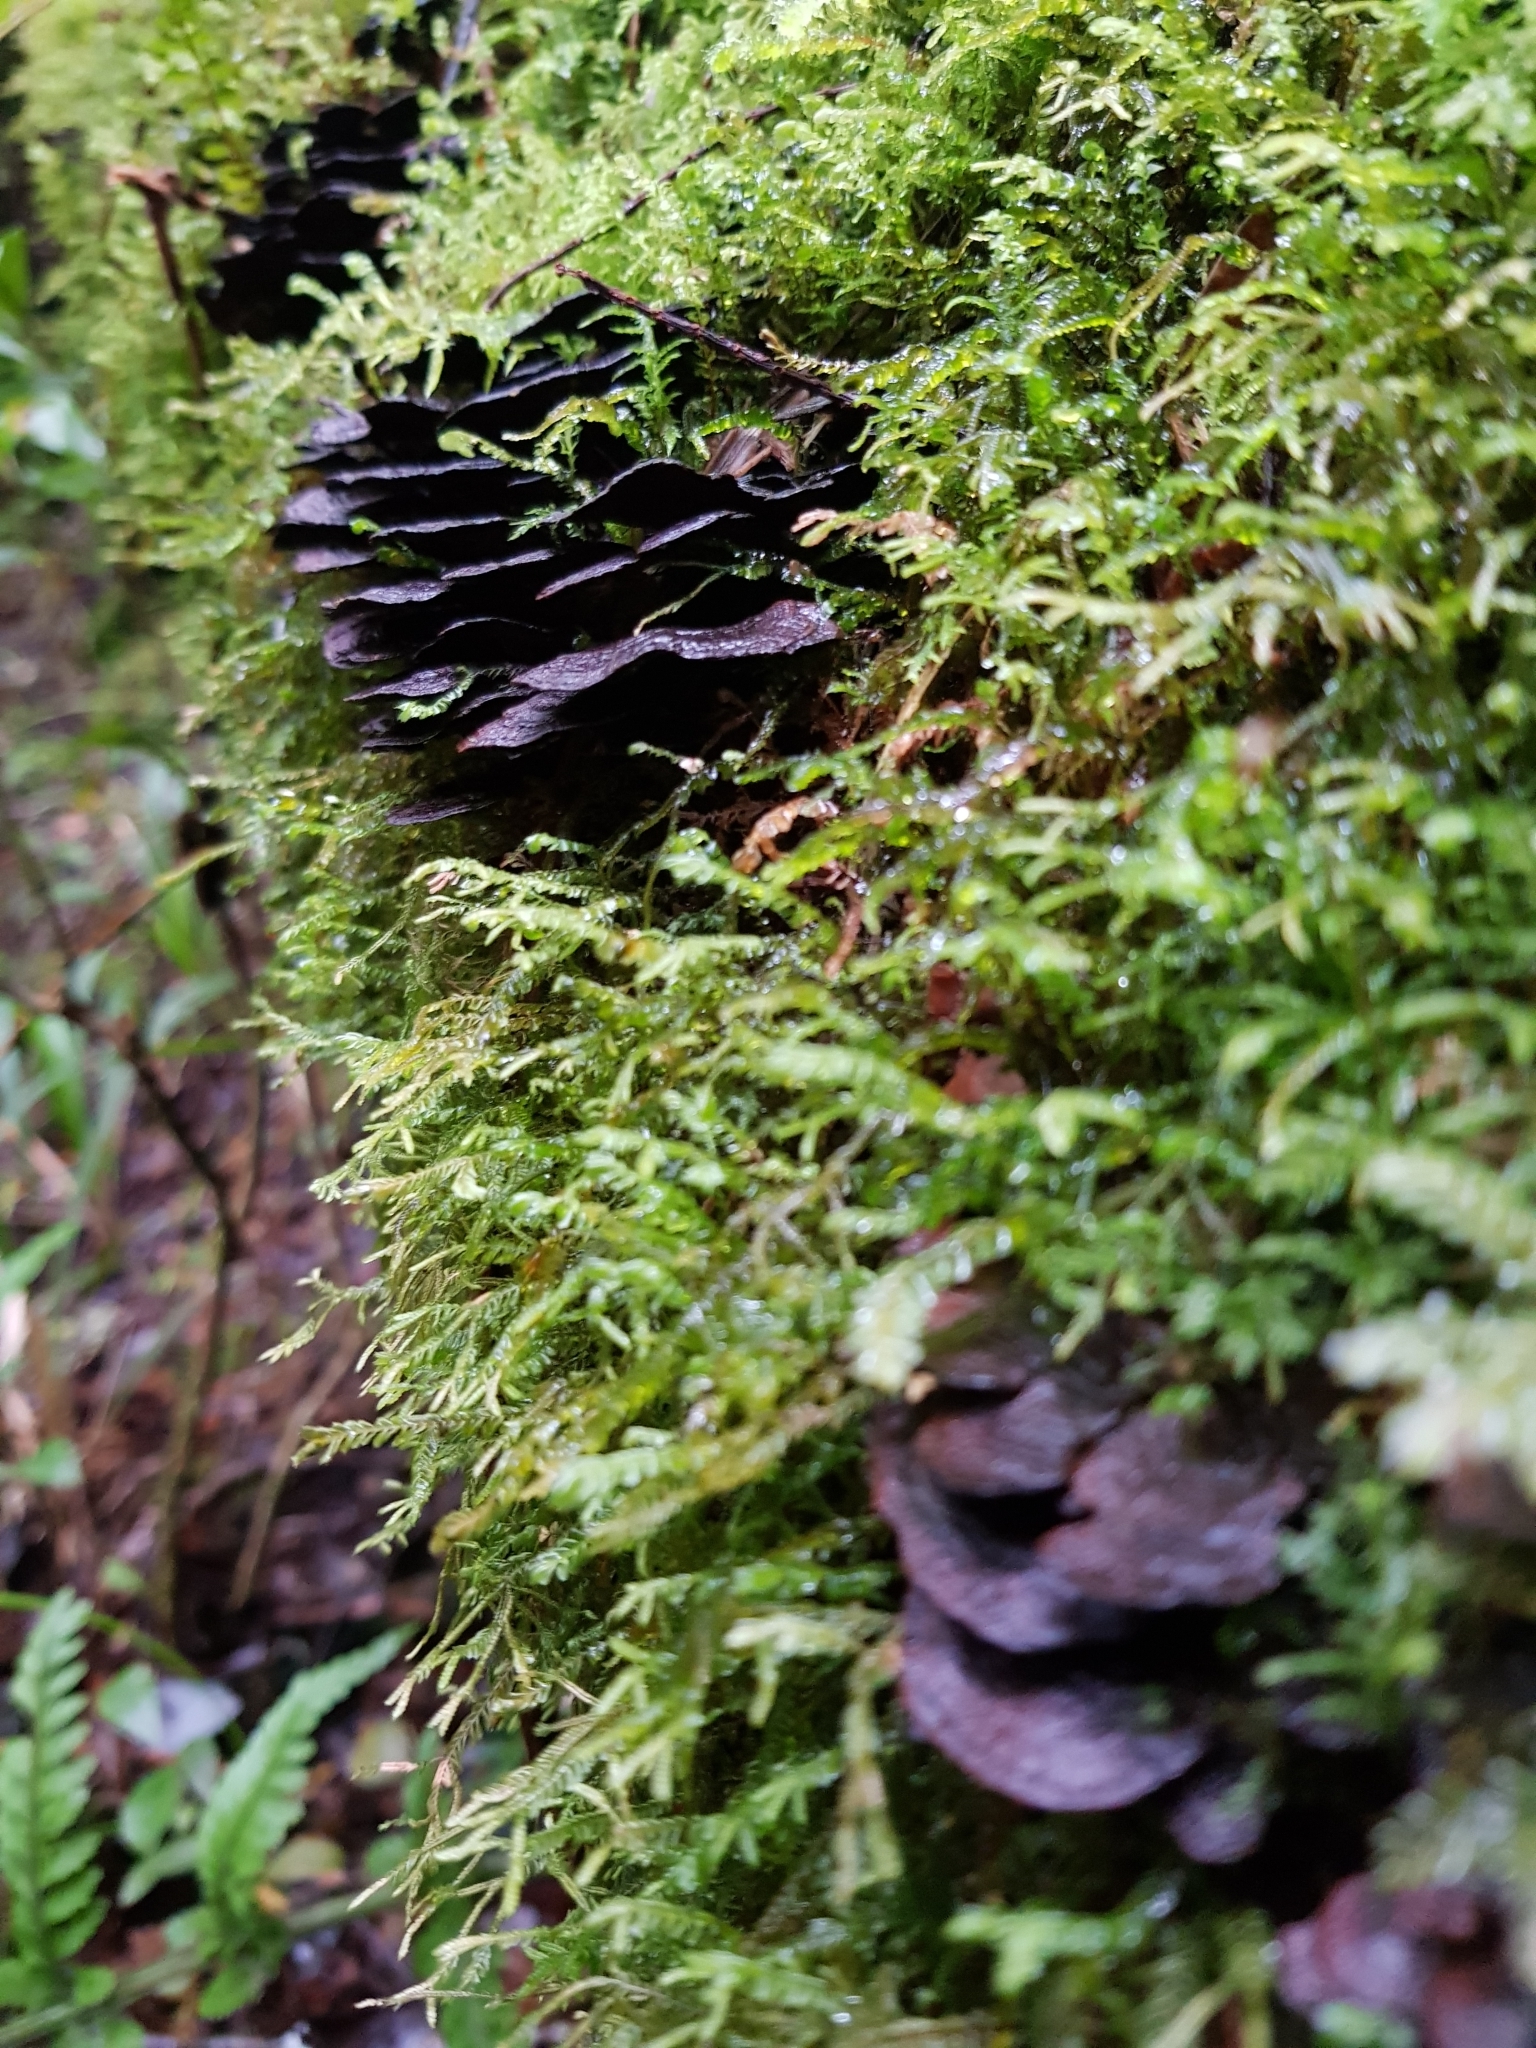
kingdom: Fungi
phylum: Basidiomycota
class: Agaricomycetes
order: Hymenochaetales
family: Hymenochaetaceae
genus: Hymenochaete
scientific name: Hymenochaete microcycla
